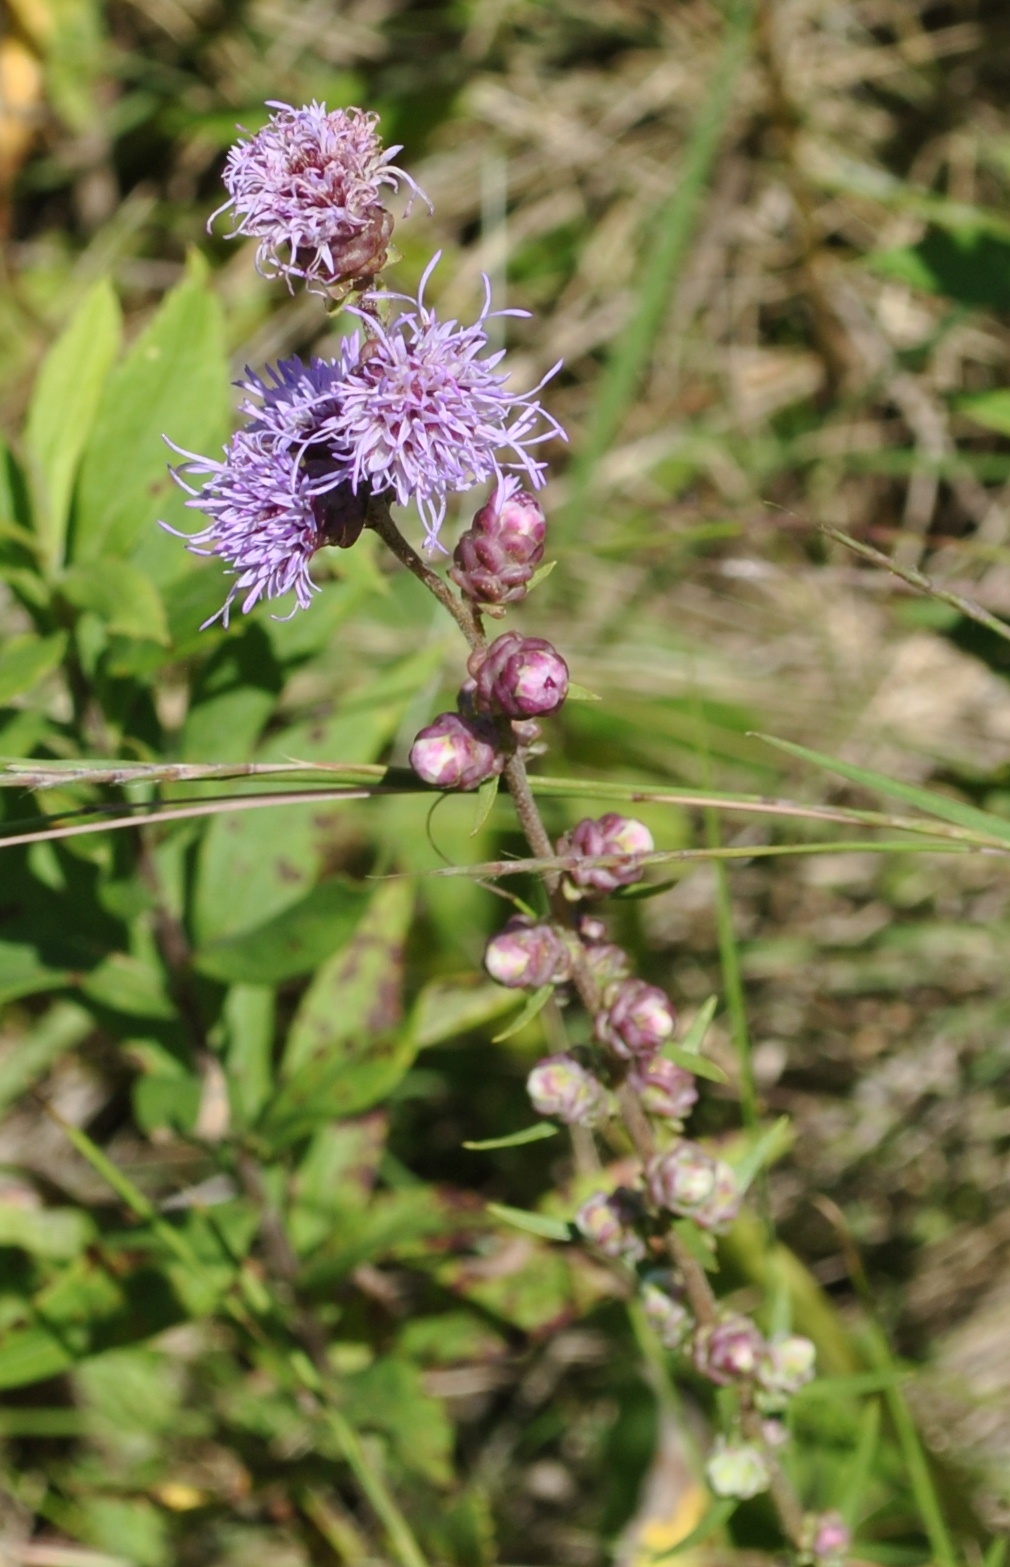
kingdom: Plantae
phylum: Tracheophyta
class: Magnoliopsida
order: Asterales
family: Asteraceae
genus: Liatris
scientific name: Liatris aspera
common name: Lacerate blazing-star
